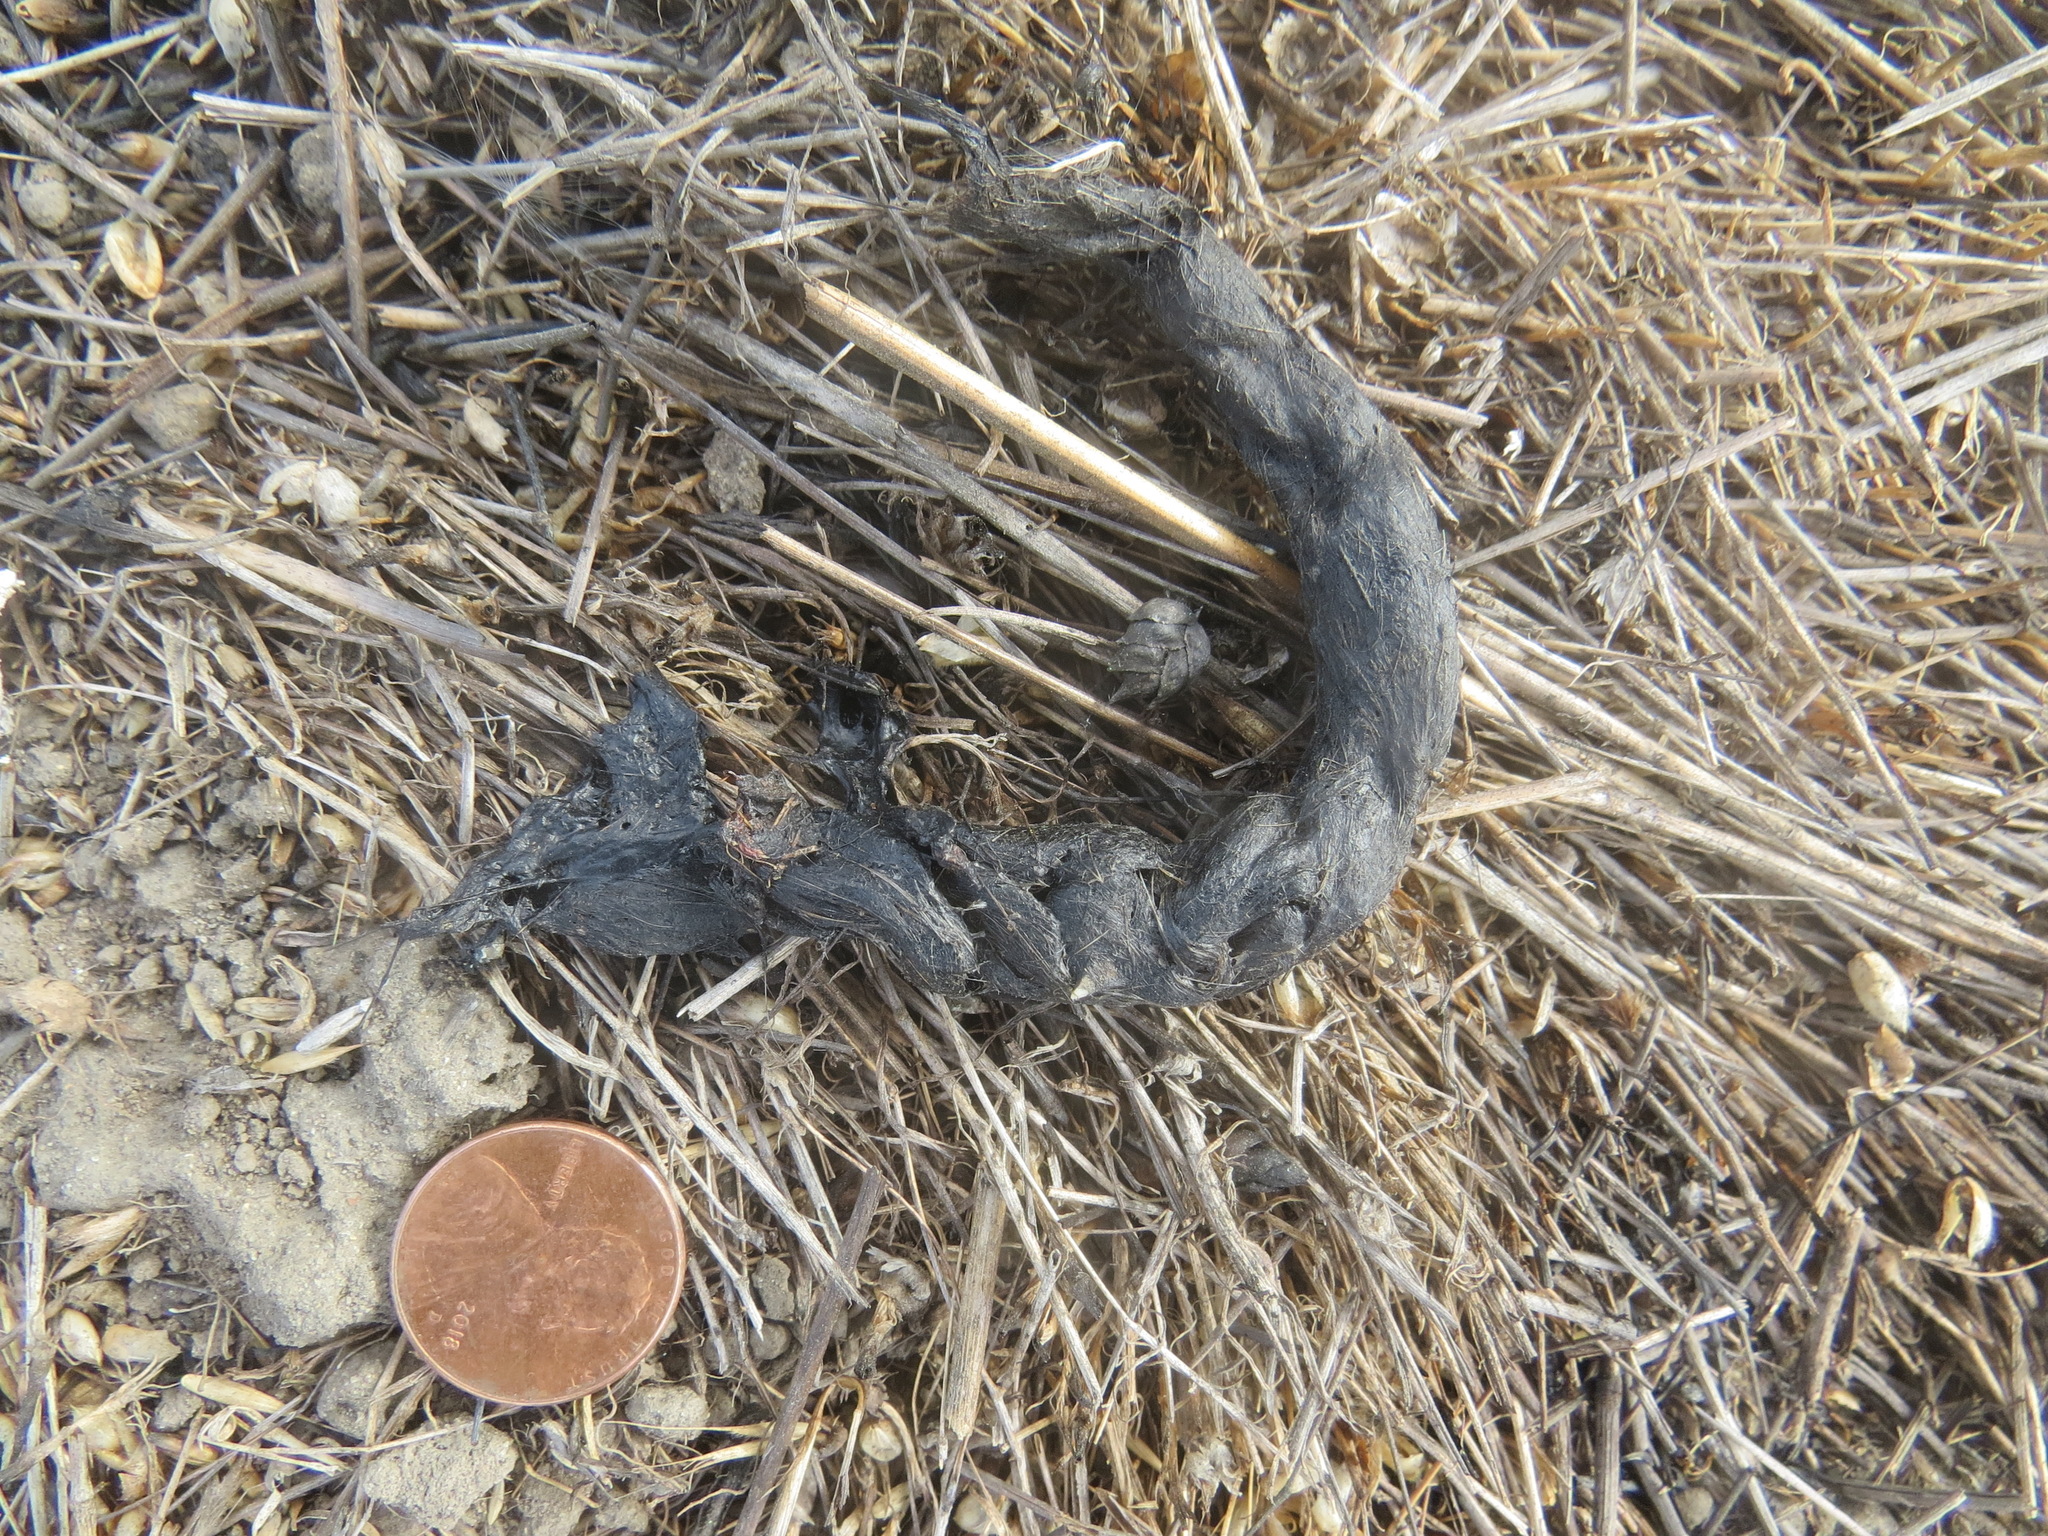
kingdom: Animalia
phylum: Chordata
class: Mammalia
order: Carnivora
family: Canidae
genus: Urocyon
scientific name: Urocyon cinereoargenteus
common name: Gray fox
